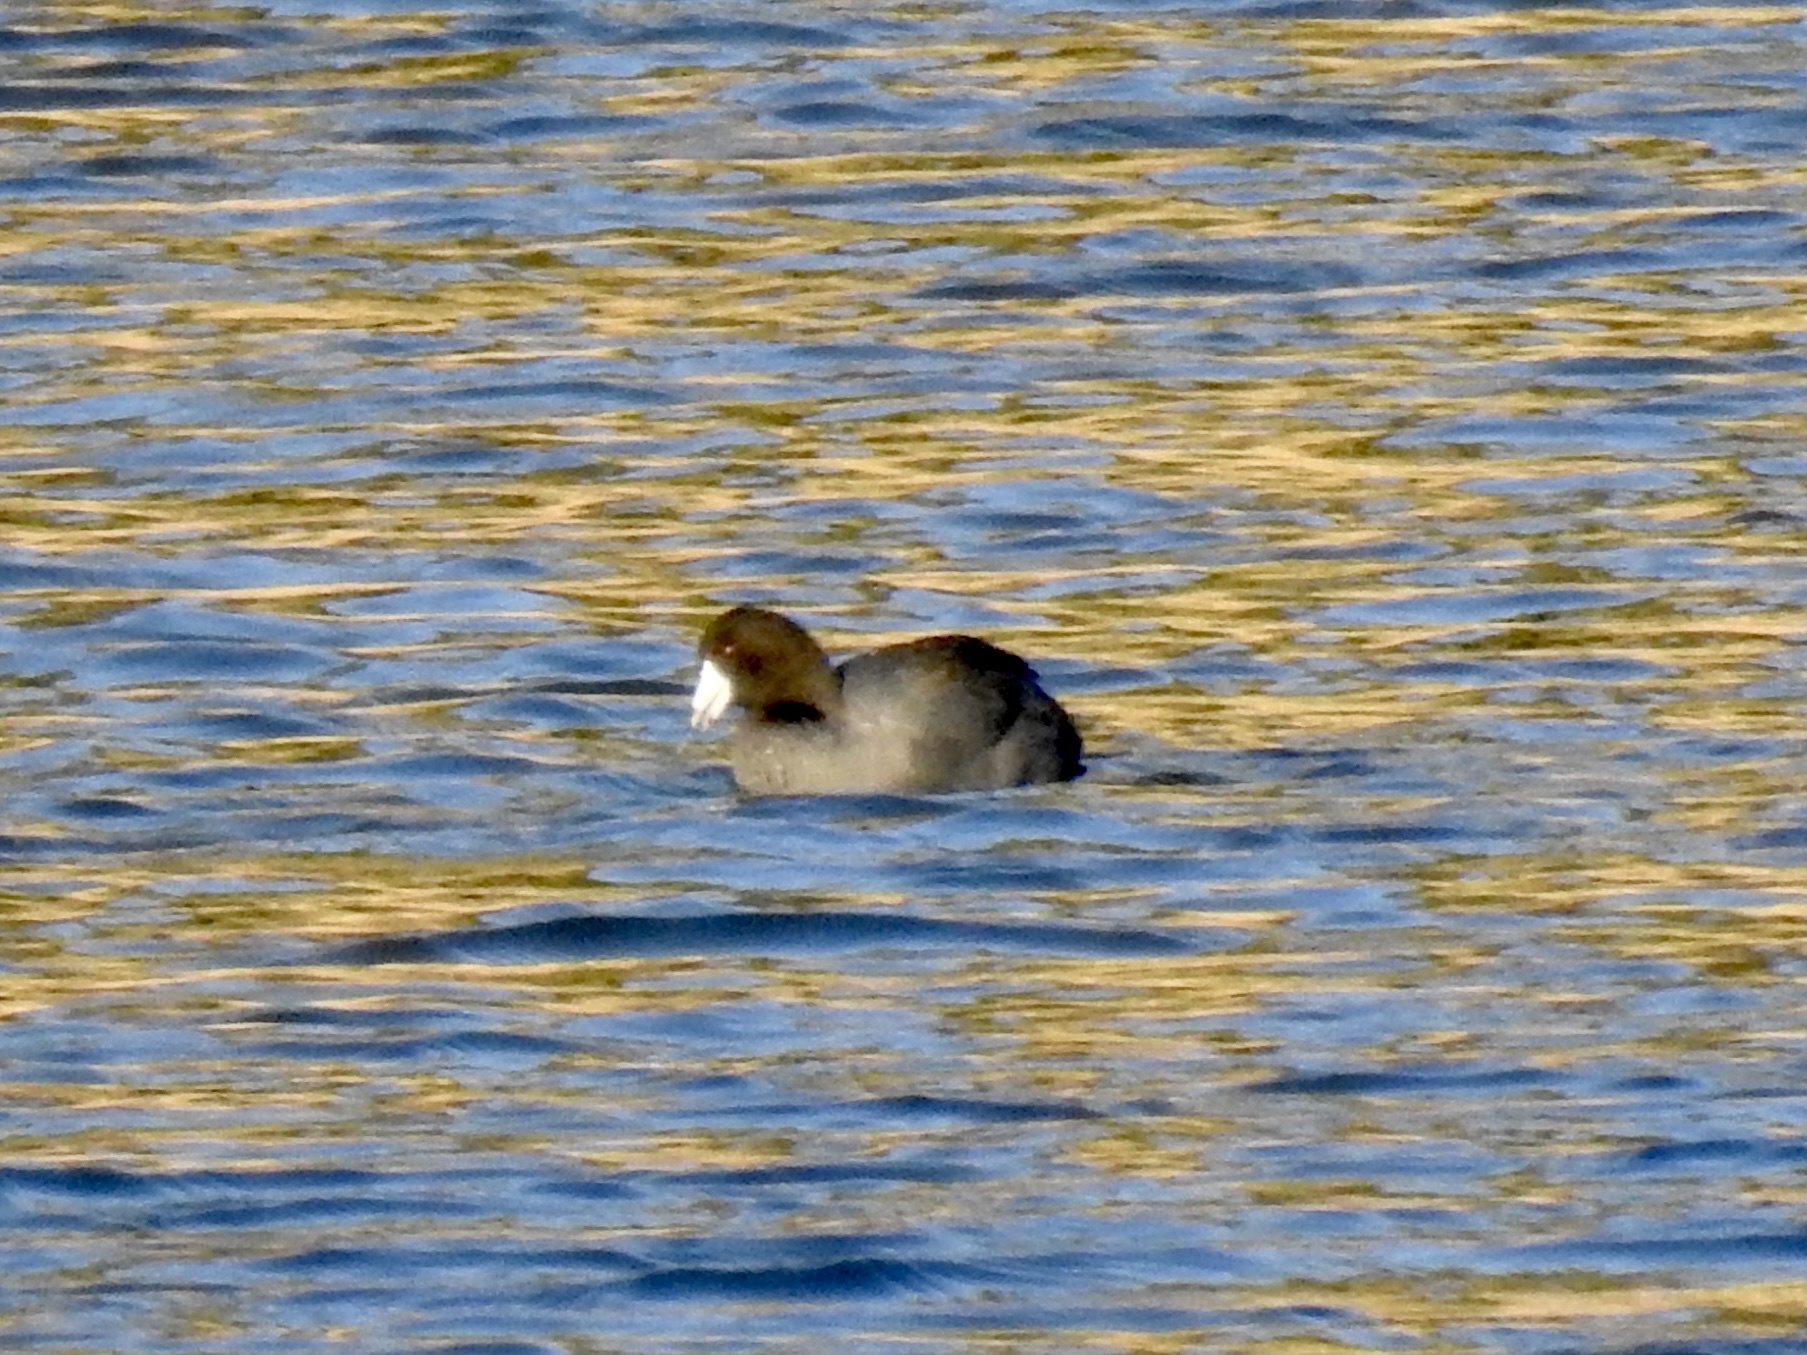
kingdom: Animalia
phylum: Chordata
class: Aves
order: Gruiformes
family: Rallidae
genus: Fulica
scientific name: Fulica americana
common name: American coot
